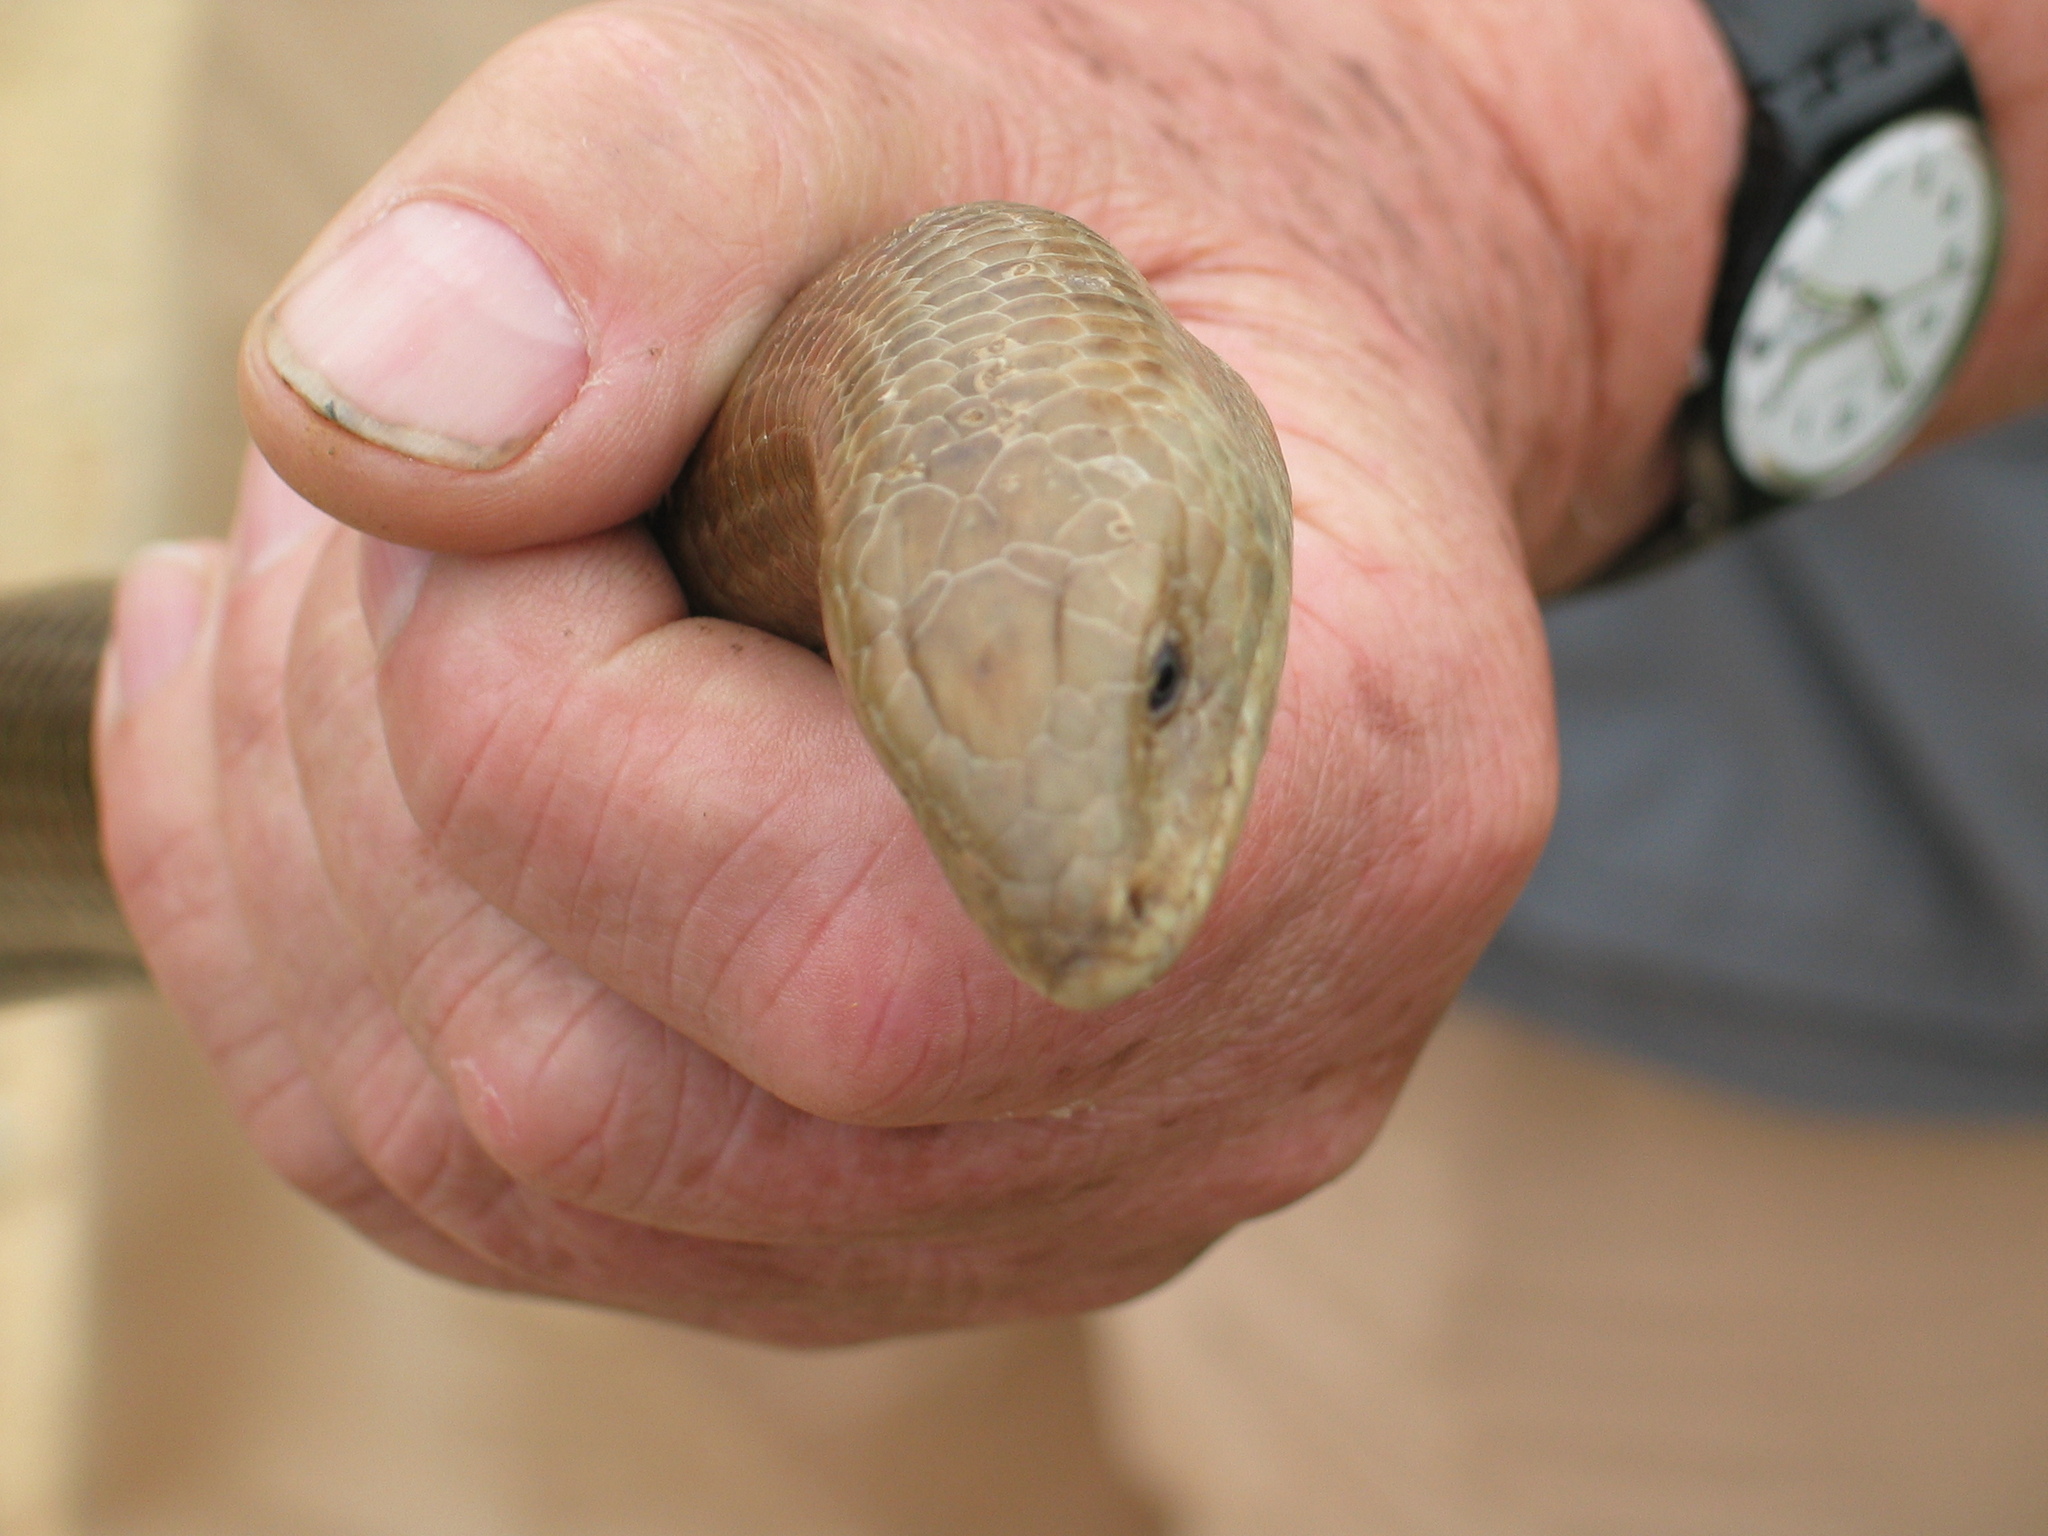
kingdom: Animalia
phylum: Chordata
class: Squamata
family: Anguidae
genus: Pseudopus
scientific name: Pseudopus apodus
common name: European glass lizard
